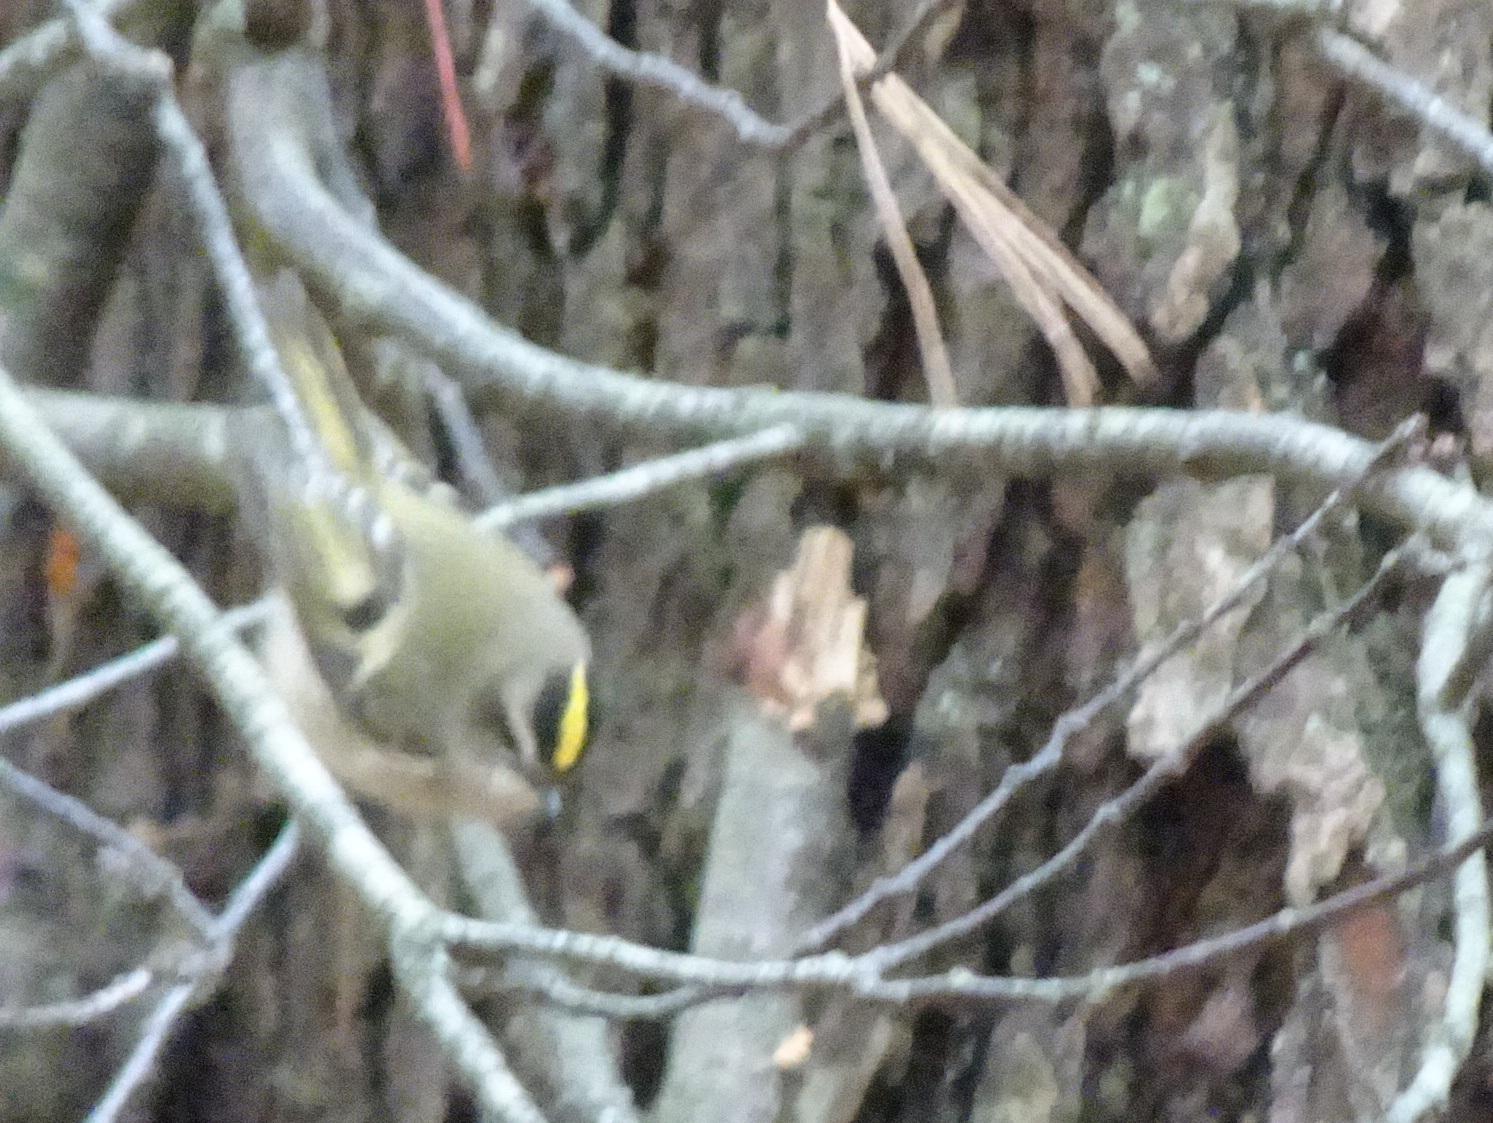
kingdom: Animalia
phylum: Chordata
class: Aves
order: Passeriformes
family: Regulidae
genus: Regulus
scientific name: Regulus satrapa
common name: Golden-crowned kinglet
